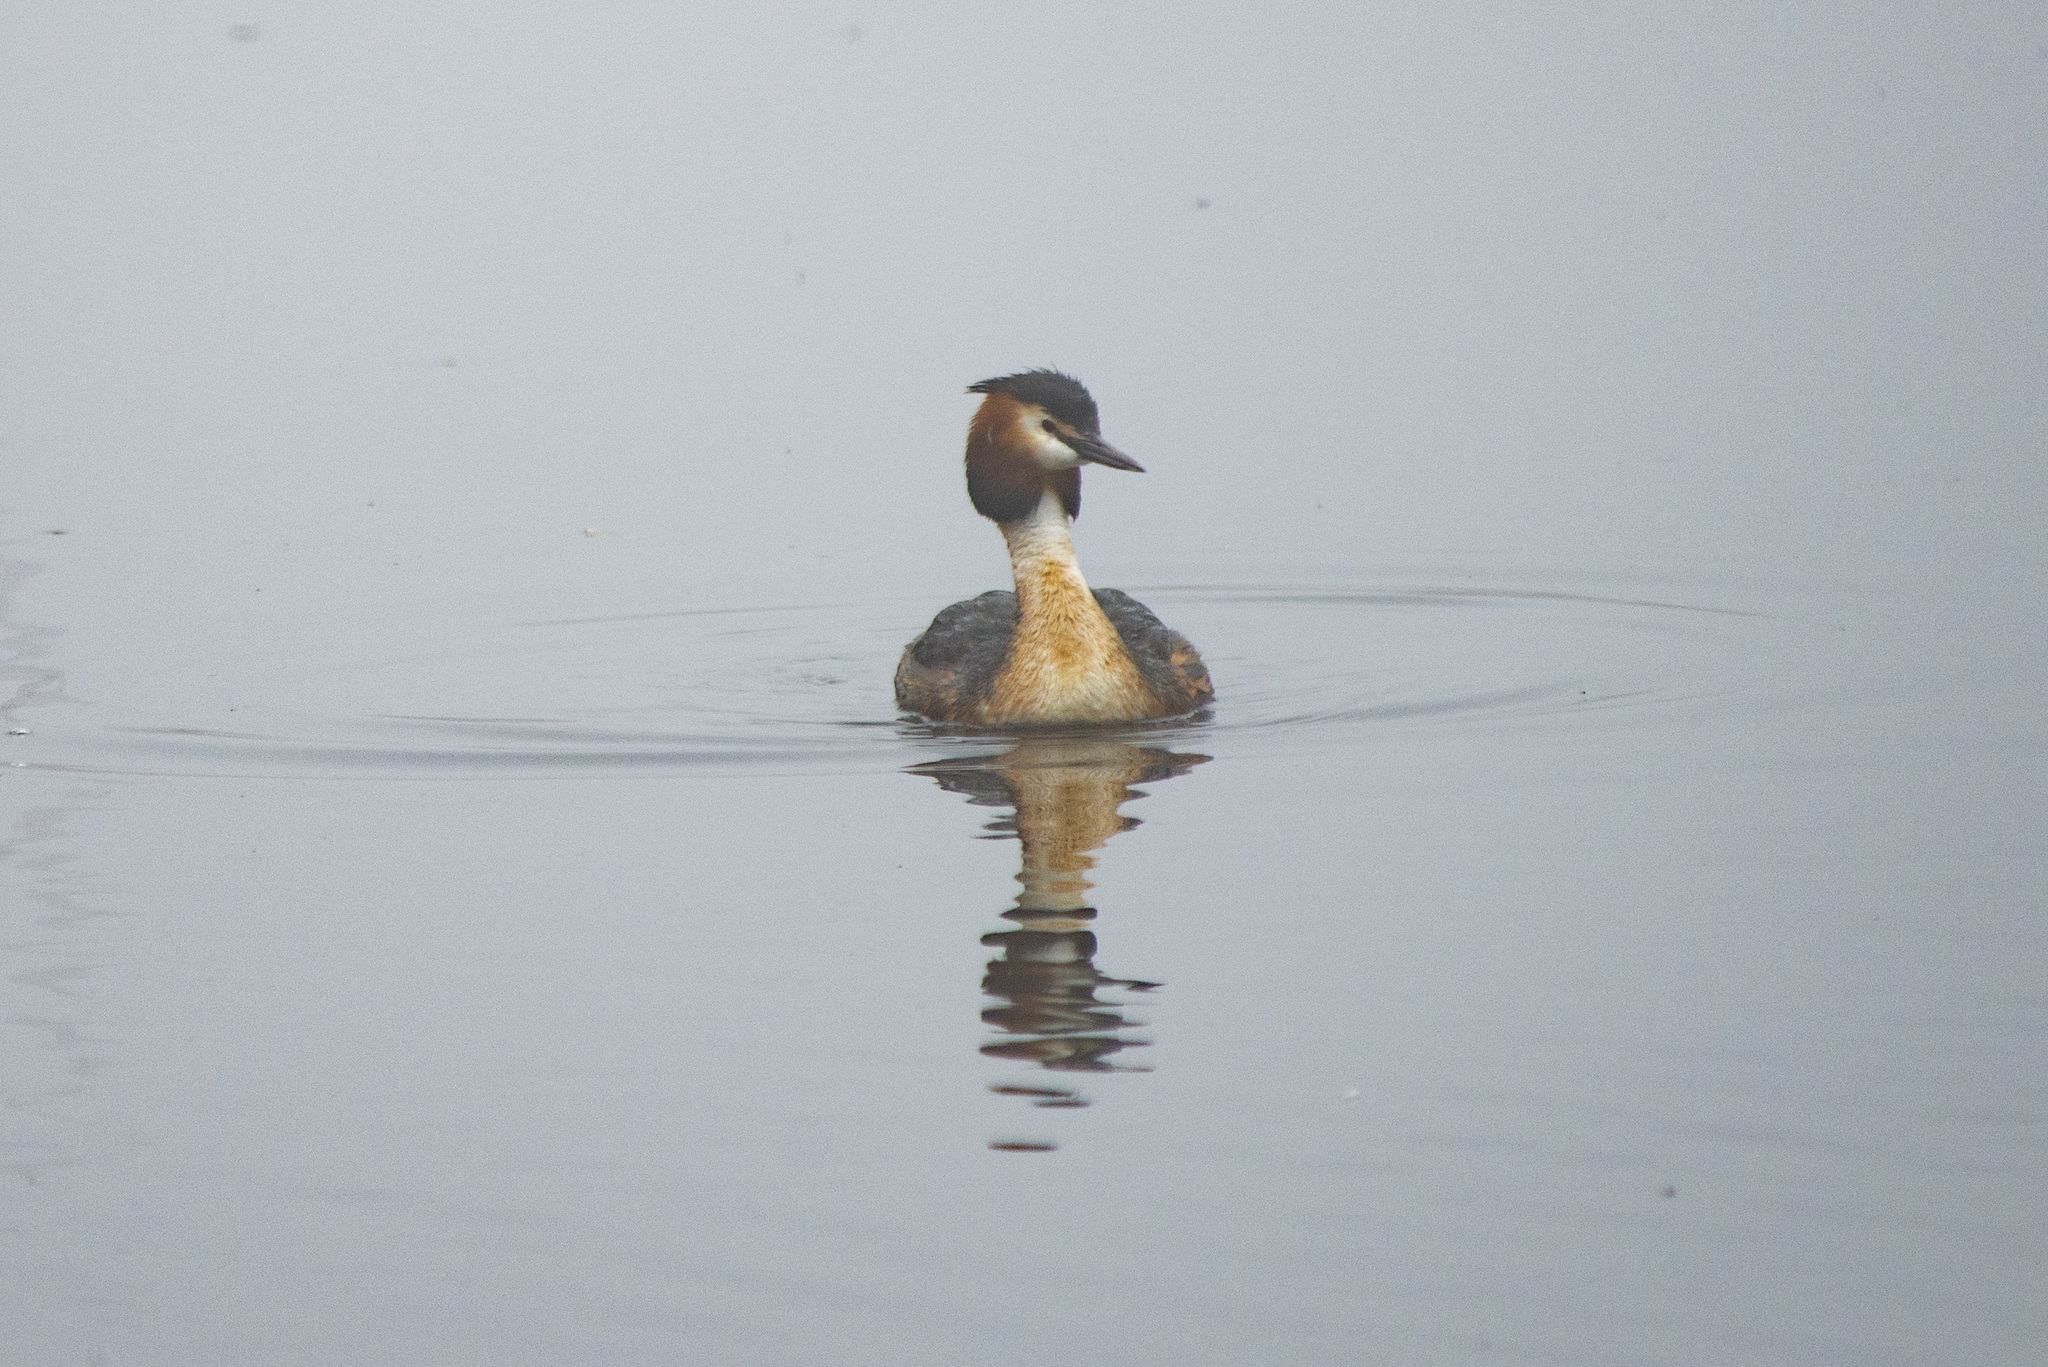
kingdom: Animalia
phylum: Chordata
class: Aves
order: Podicipediformes
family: Podicipedidae
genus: Podiceps
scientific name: Podiceps cristatus
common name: Great crested grebe
